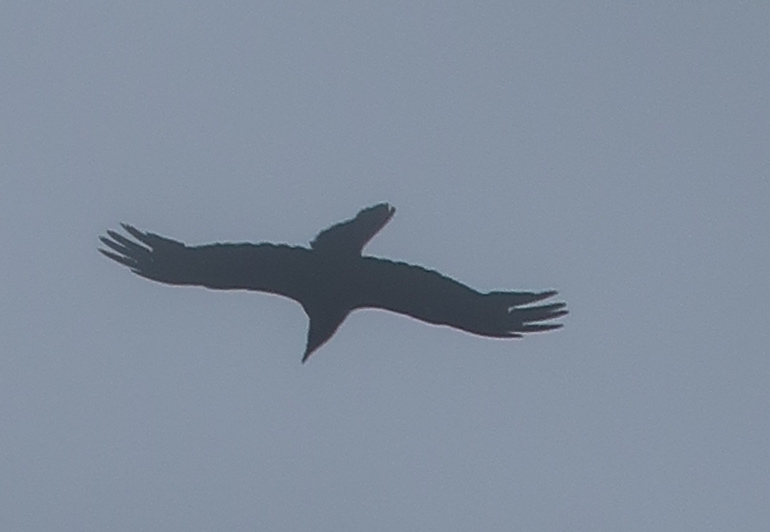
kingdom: Animalia
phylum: Chordata
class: Aves
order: Passeriformes
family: Corvidae
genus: Corvus
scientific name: Corvus corax
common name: Common raven
